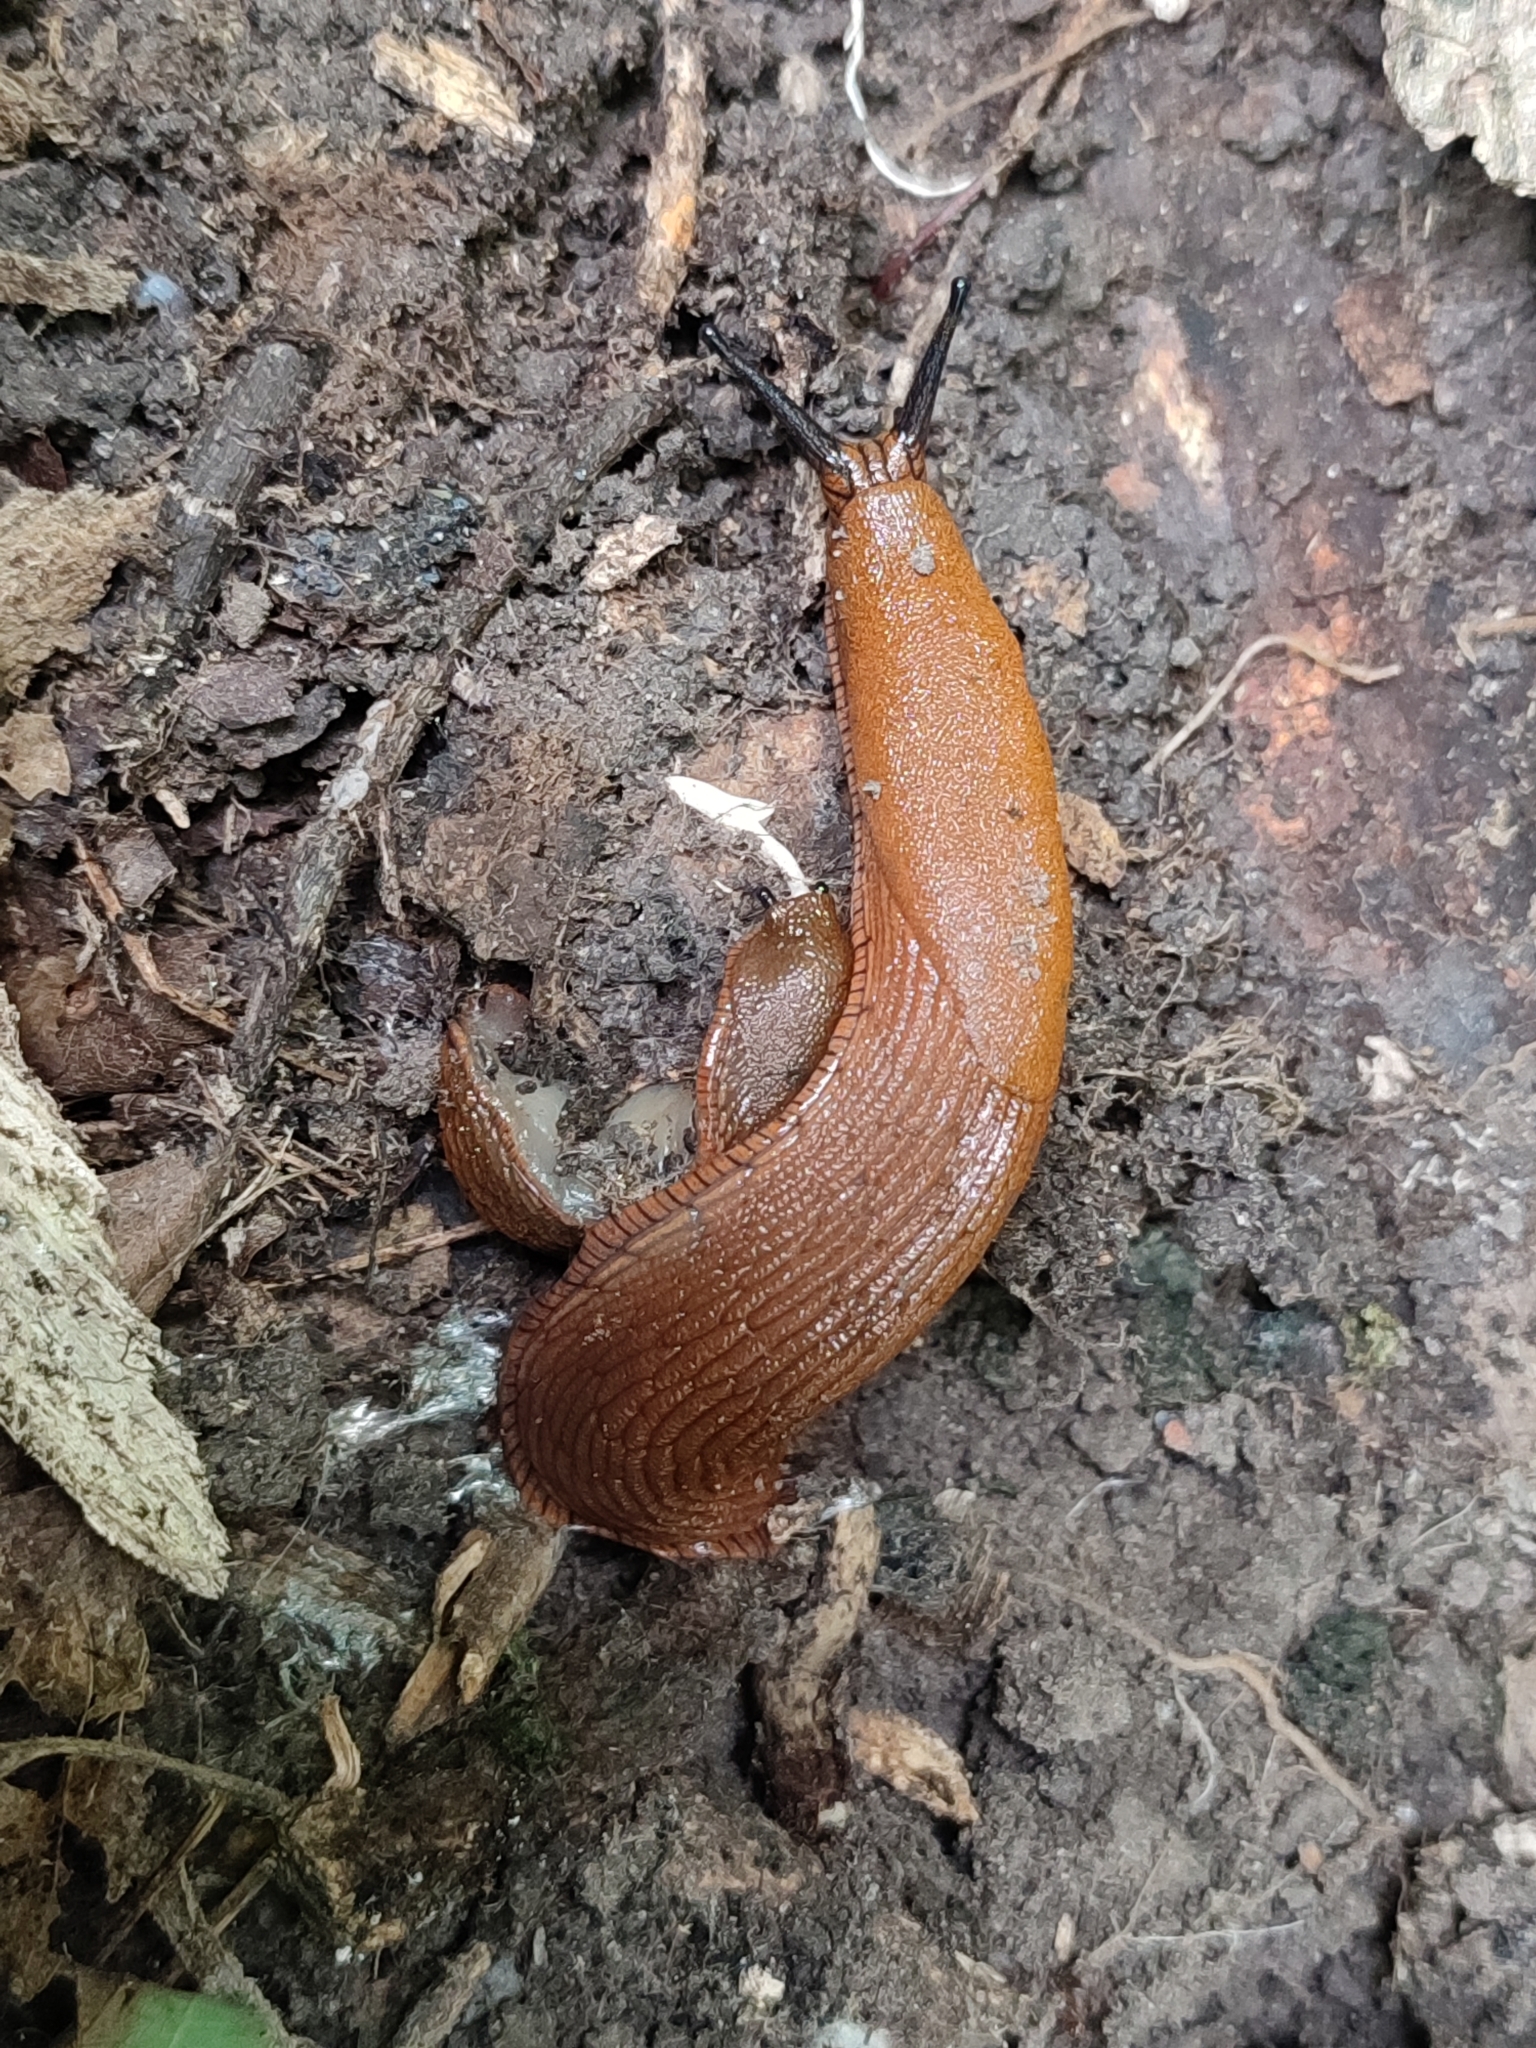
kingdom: Animalia
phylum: Mollusca
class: Gastropoda
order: Stylommatophora
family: Arionidae
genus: Arion
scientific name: Arion vulgaris
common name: Lusitanian slug
